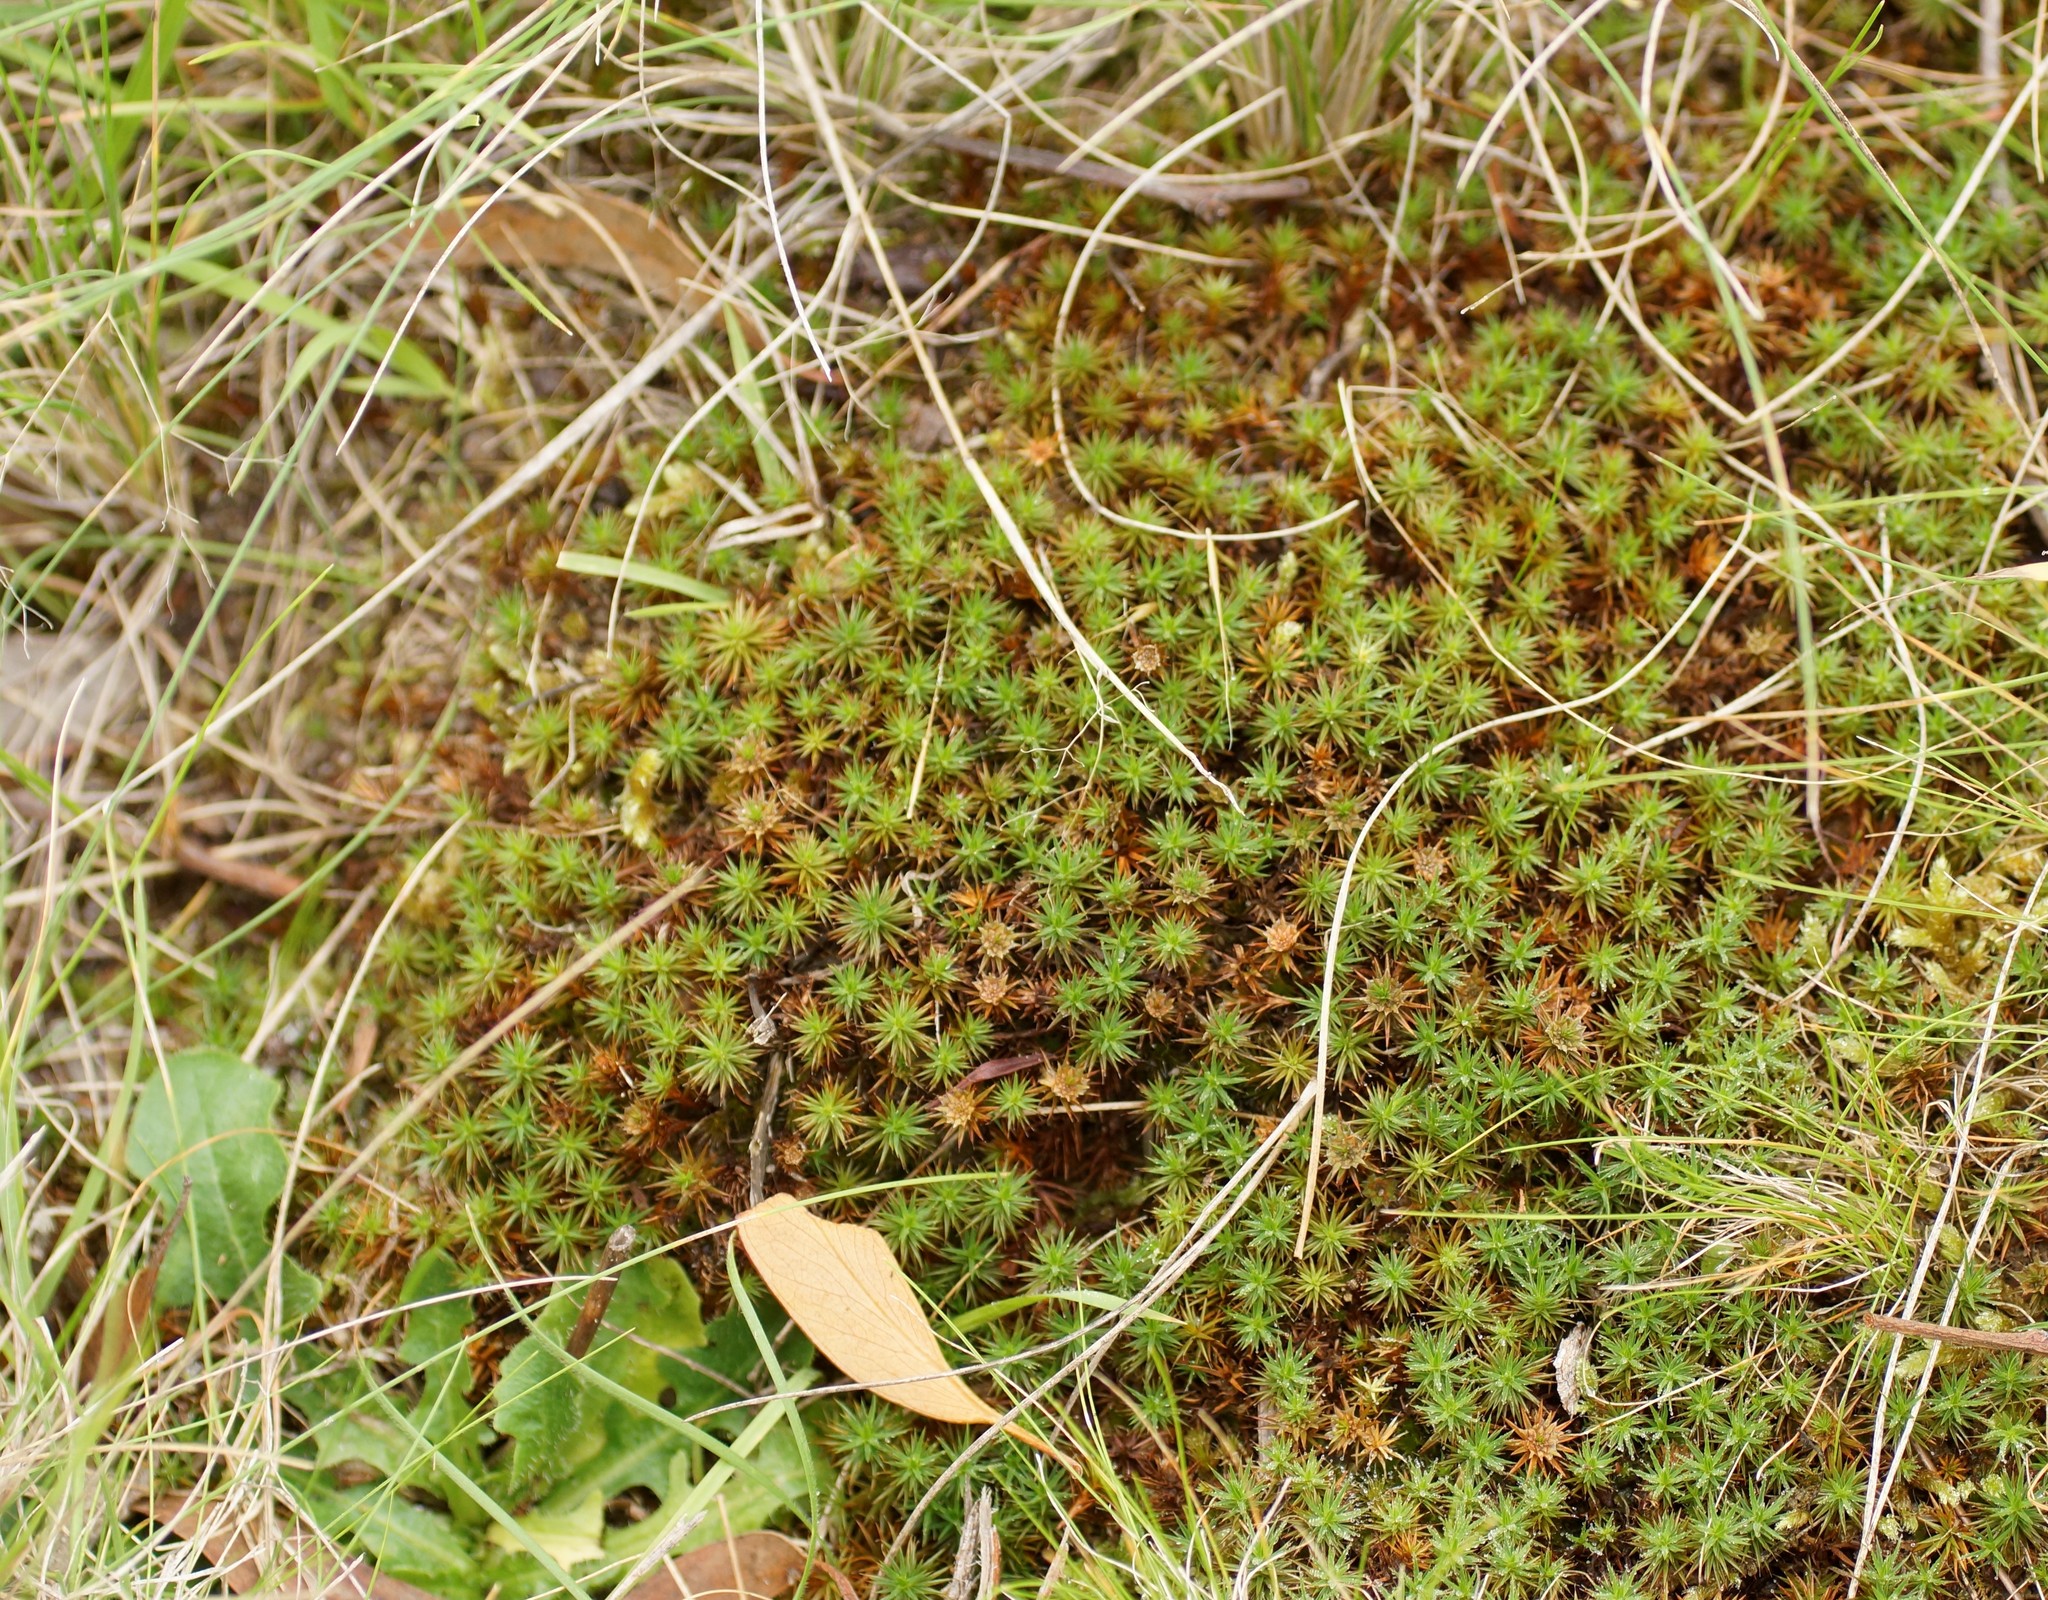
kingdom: Plantae
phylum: Bryophyta
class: Polytrichopsida
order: Polytrichales
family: Polytrichaceae
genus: Polytrichum
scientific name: Polytrichum juniperinum
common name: Juniper haircap moss
